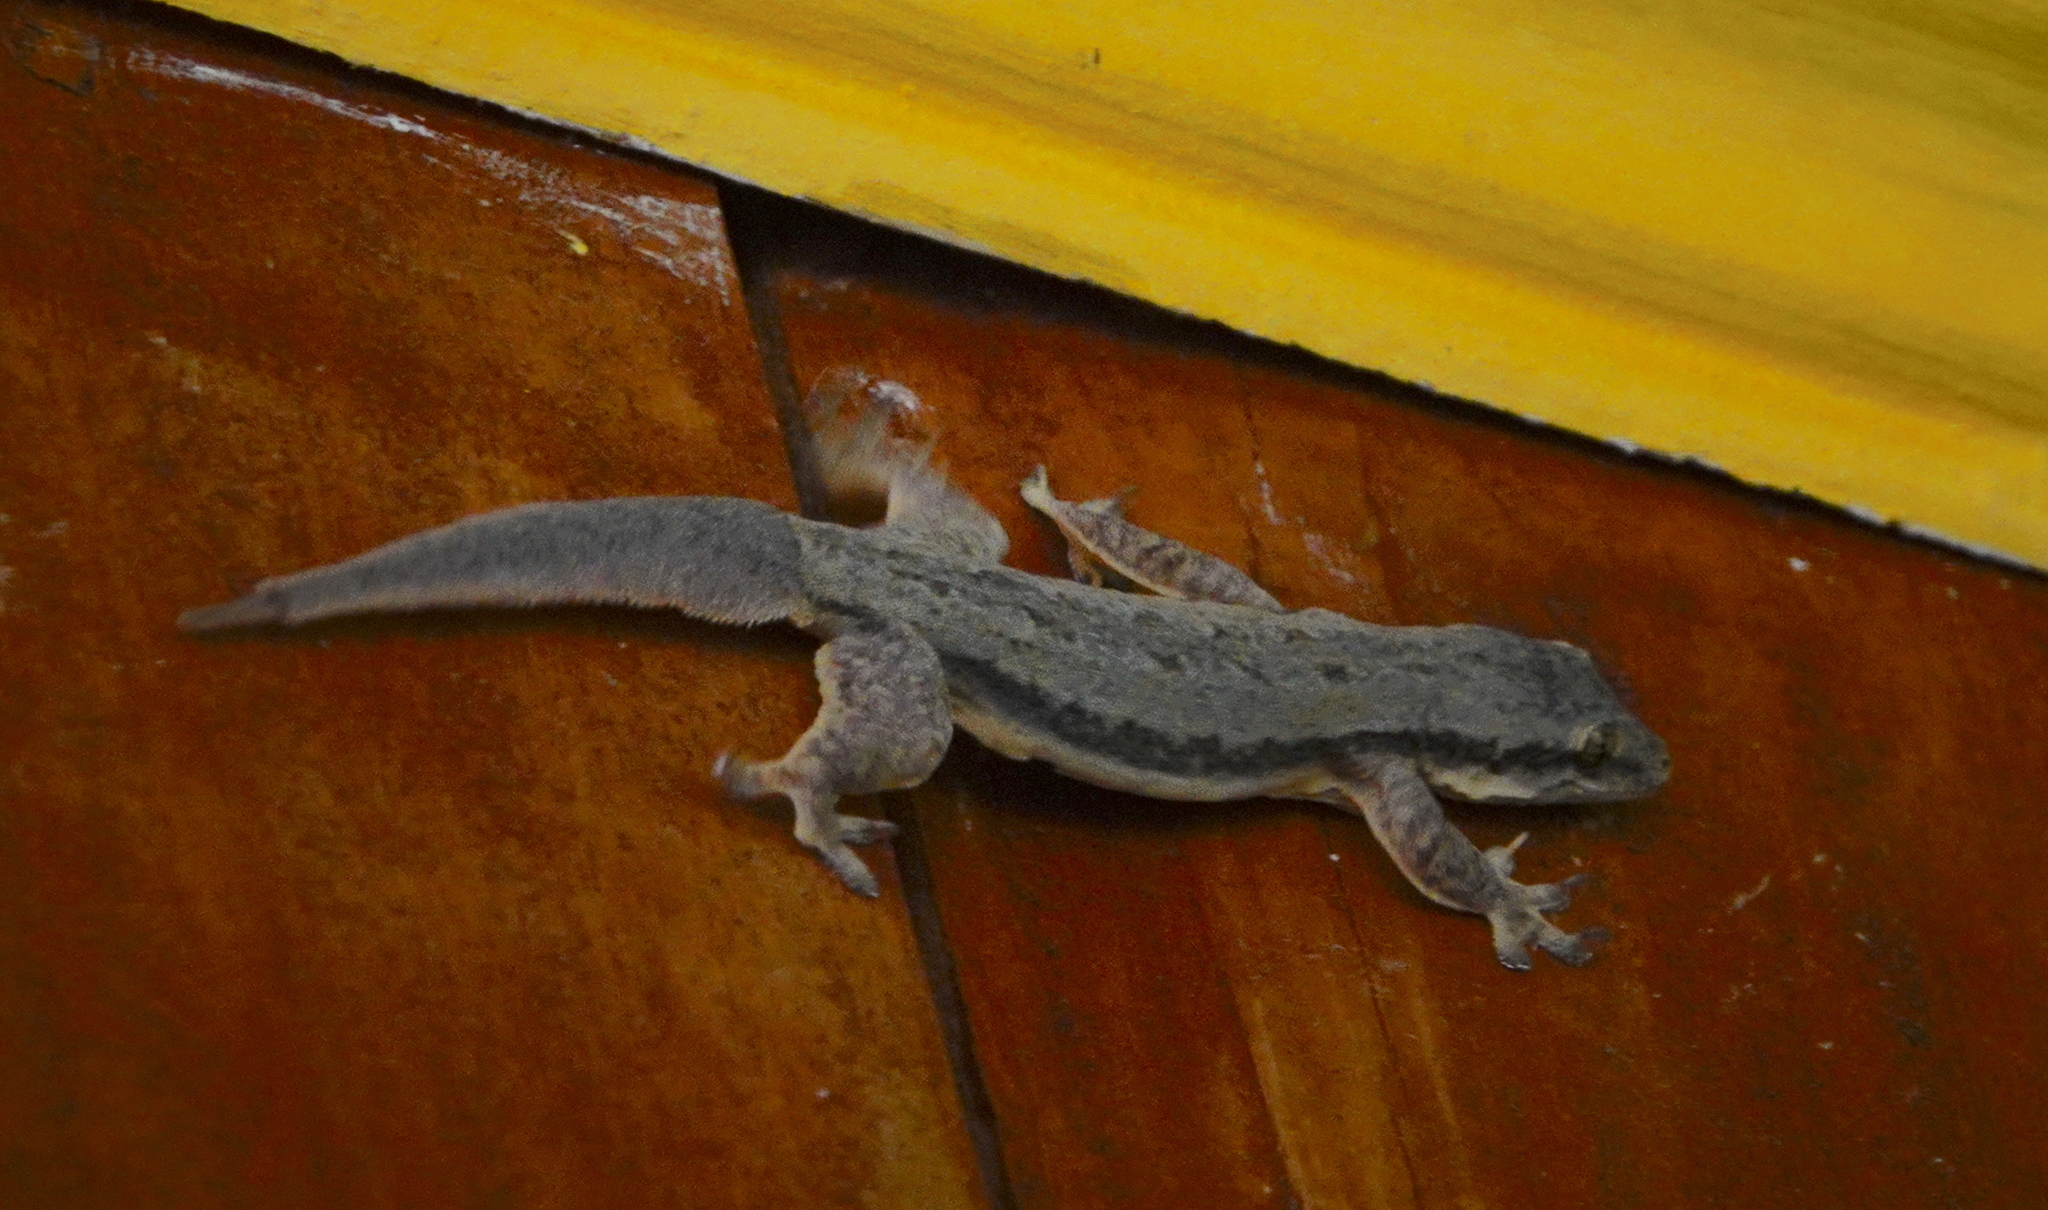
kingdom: Animalia
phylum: Chordata
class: Squamata
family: Gekkonidae
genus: Hemidactylus
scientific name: Hemidactylus frenatus
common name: Common house gecko
